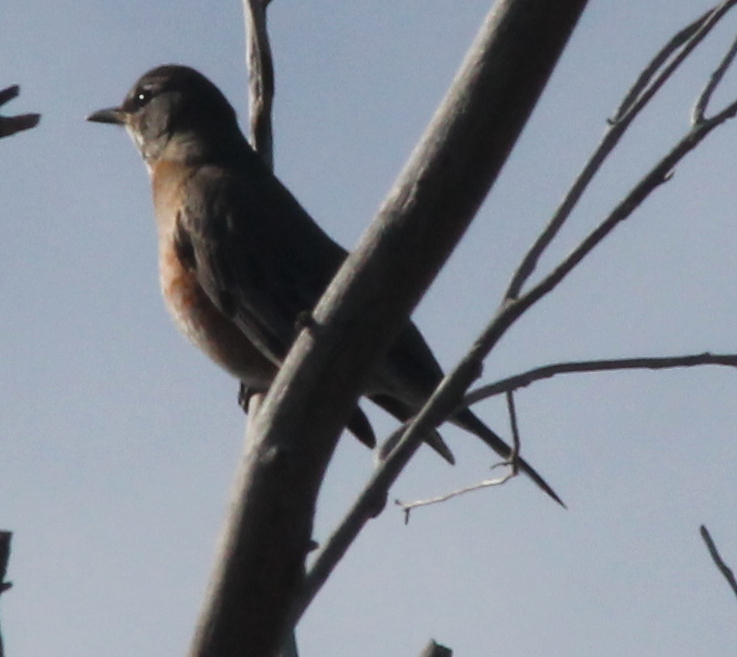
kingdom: Animalia
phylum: Chordata
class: Aves
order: Passeriformes
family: Turdidae
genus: Turdus
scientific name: Turdus migratorius
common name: American robin
